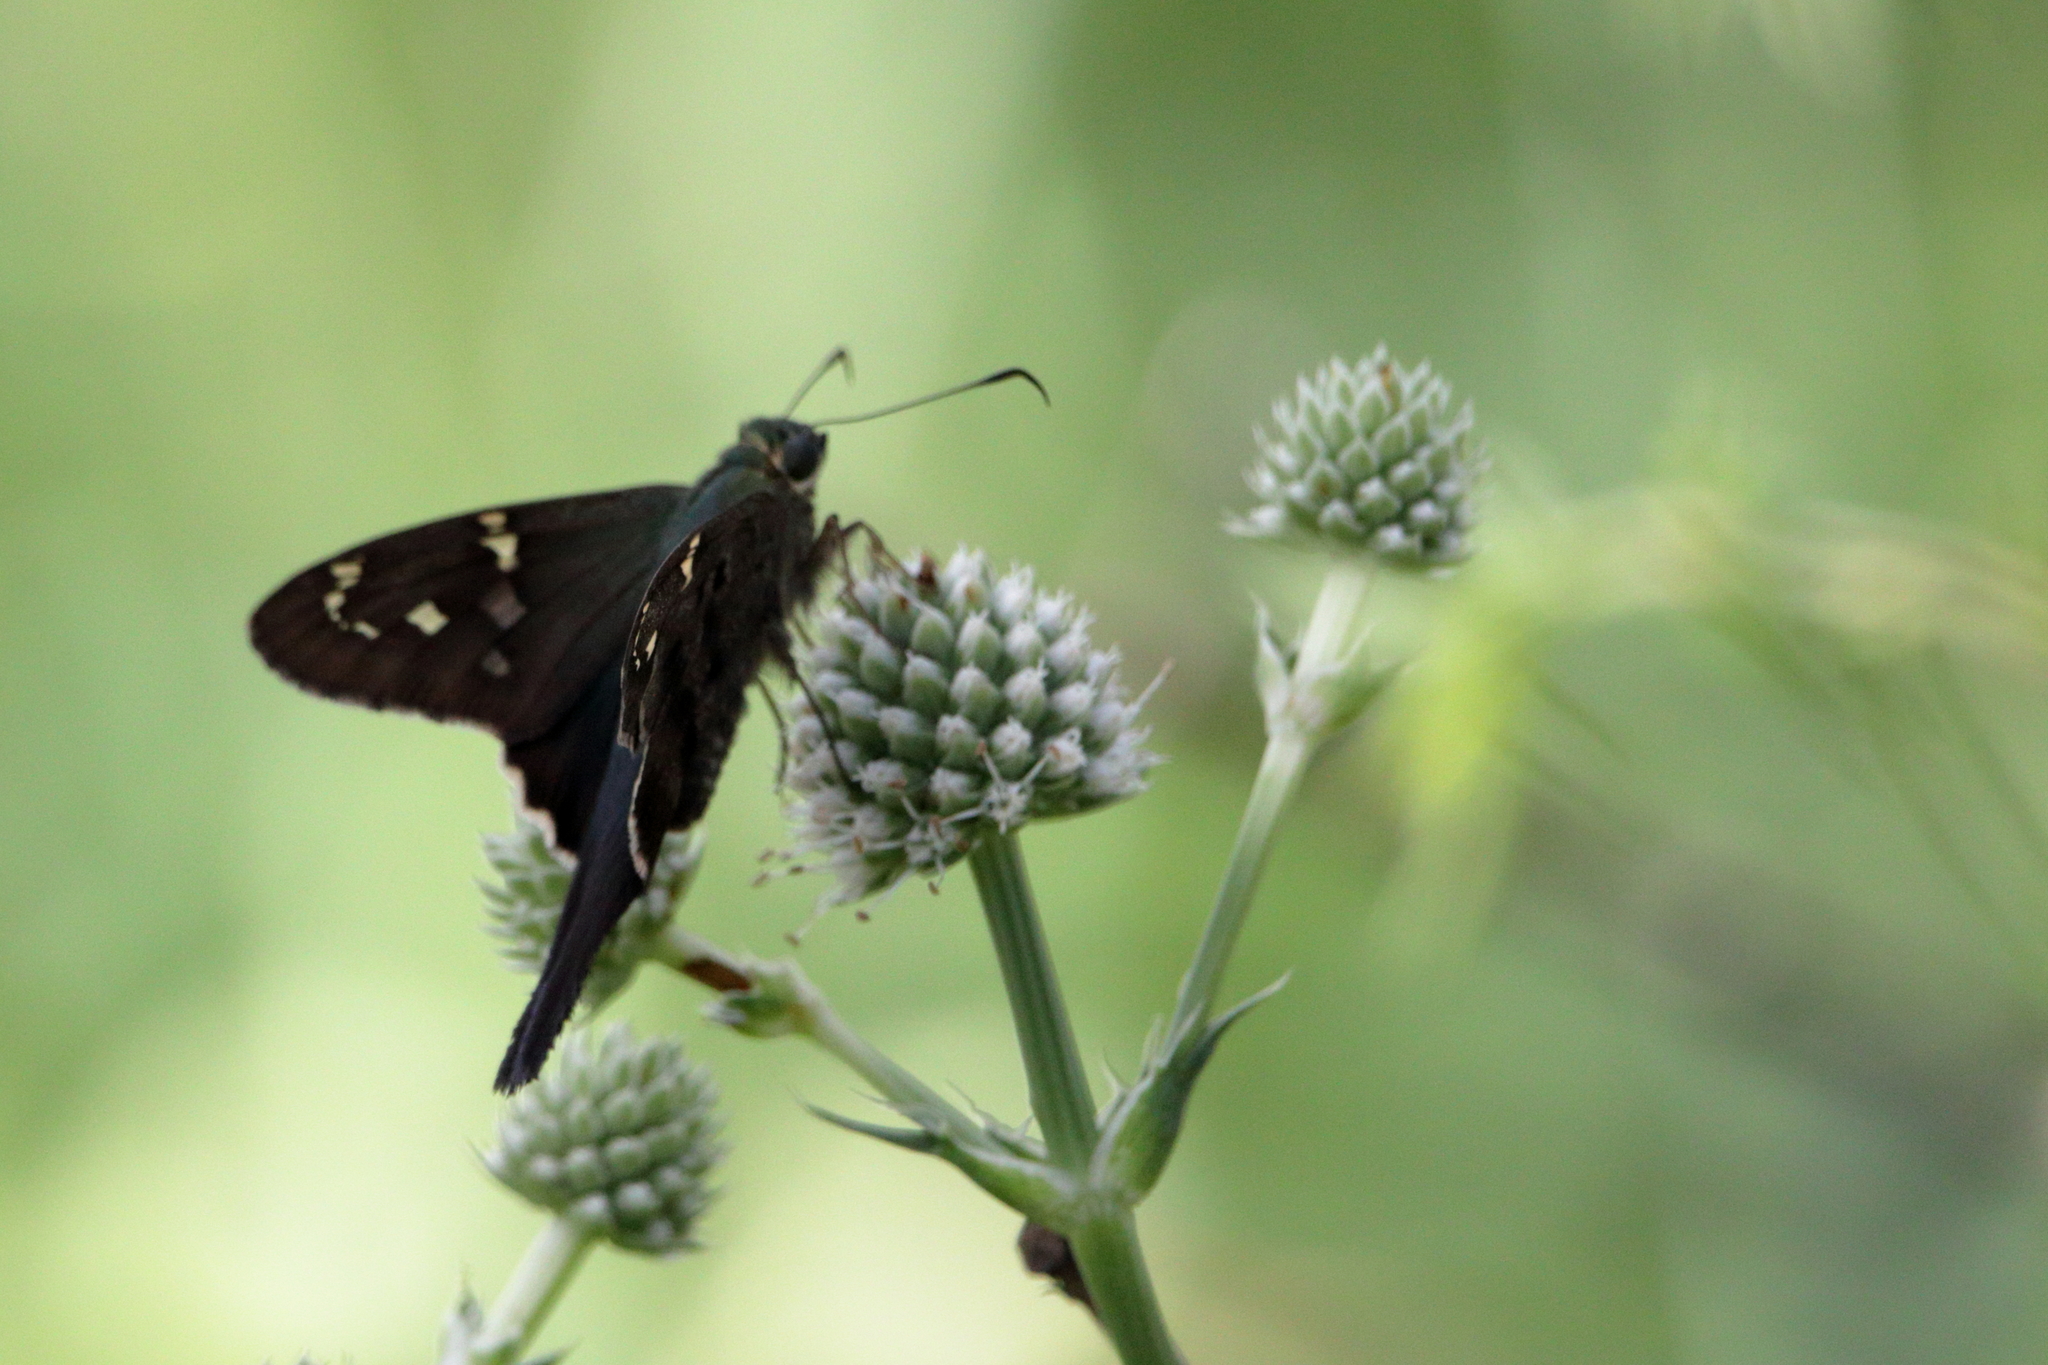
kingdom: Animalia
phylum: Arthropoda
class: Insecta
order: Lepidoptera
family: Hesperiidae
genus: Urbanus
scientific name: Urbanus proteus
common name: Long-tailed skipper
